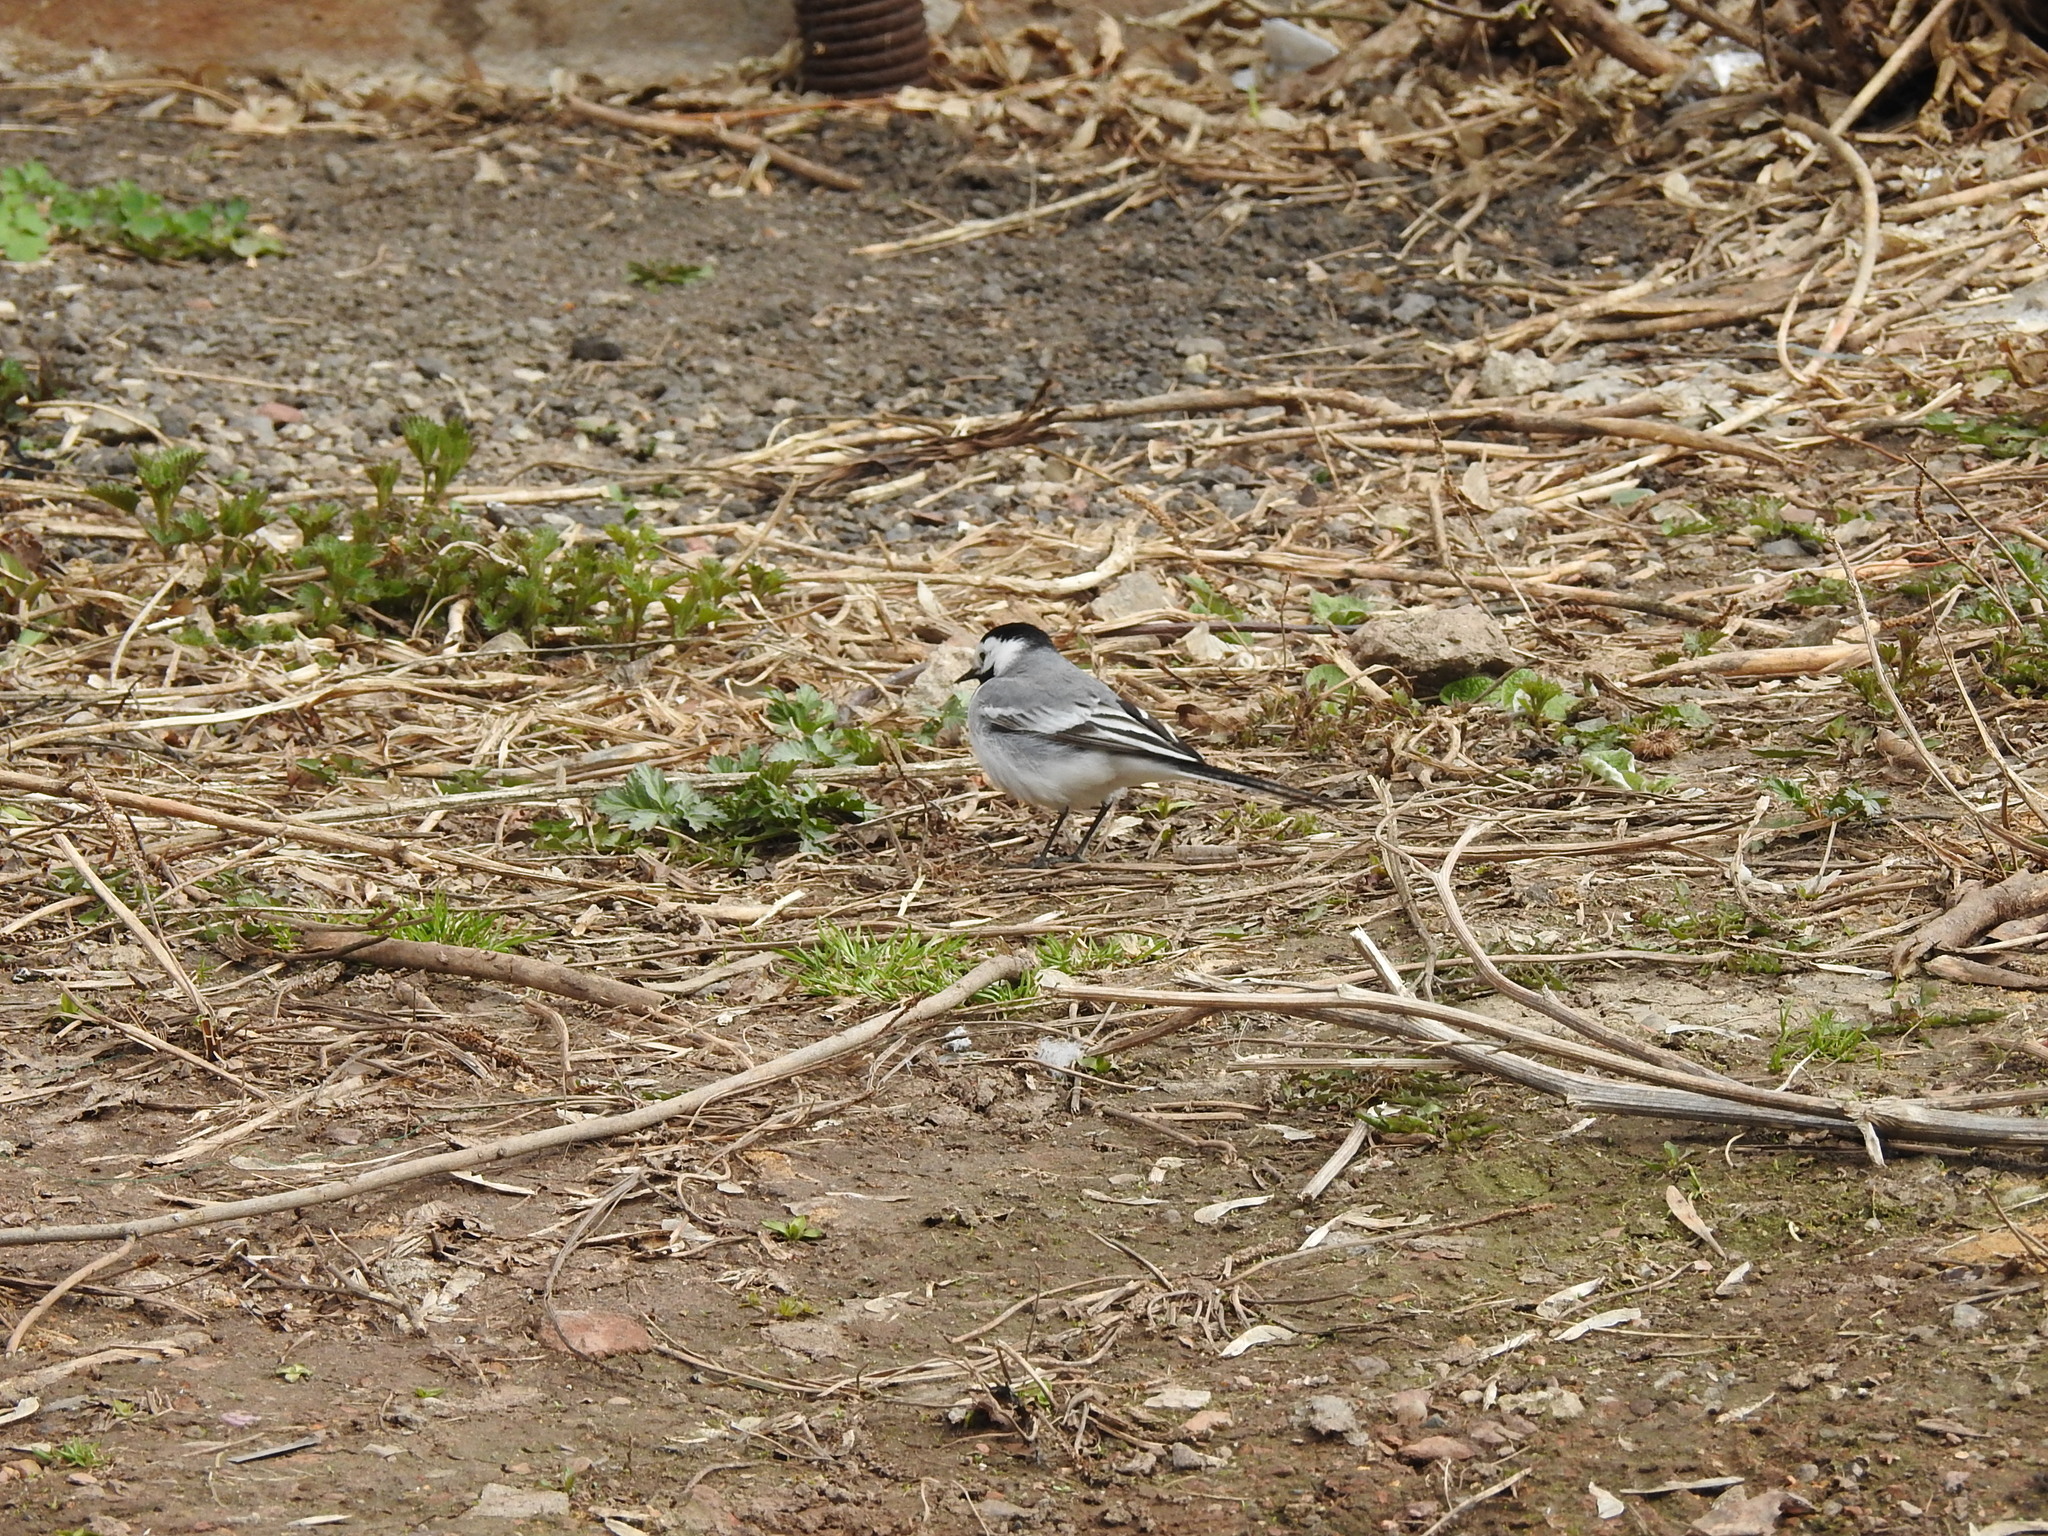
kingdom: Animalia
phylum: Chordata
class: Aves
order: Passeriformes
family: Motacillidae
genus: Motacilla
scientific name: Motacilla alba
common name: White wagtail
